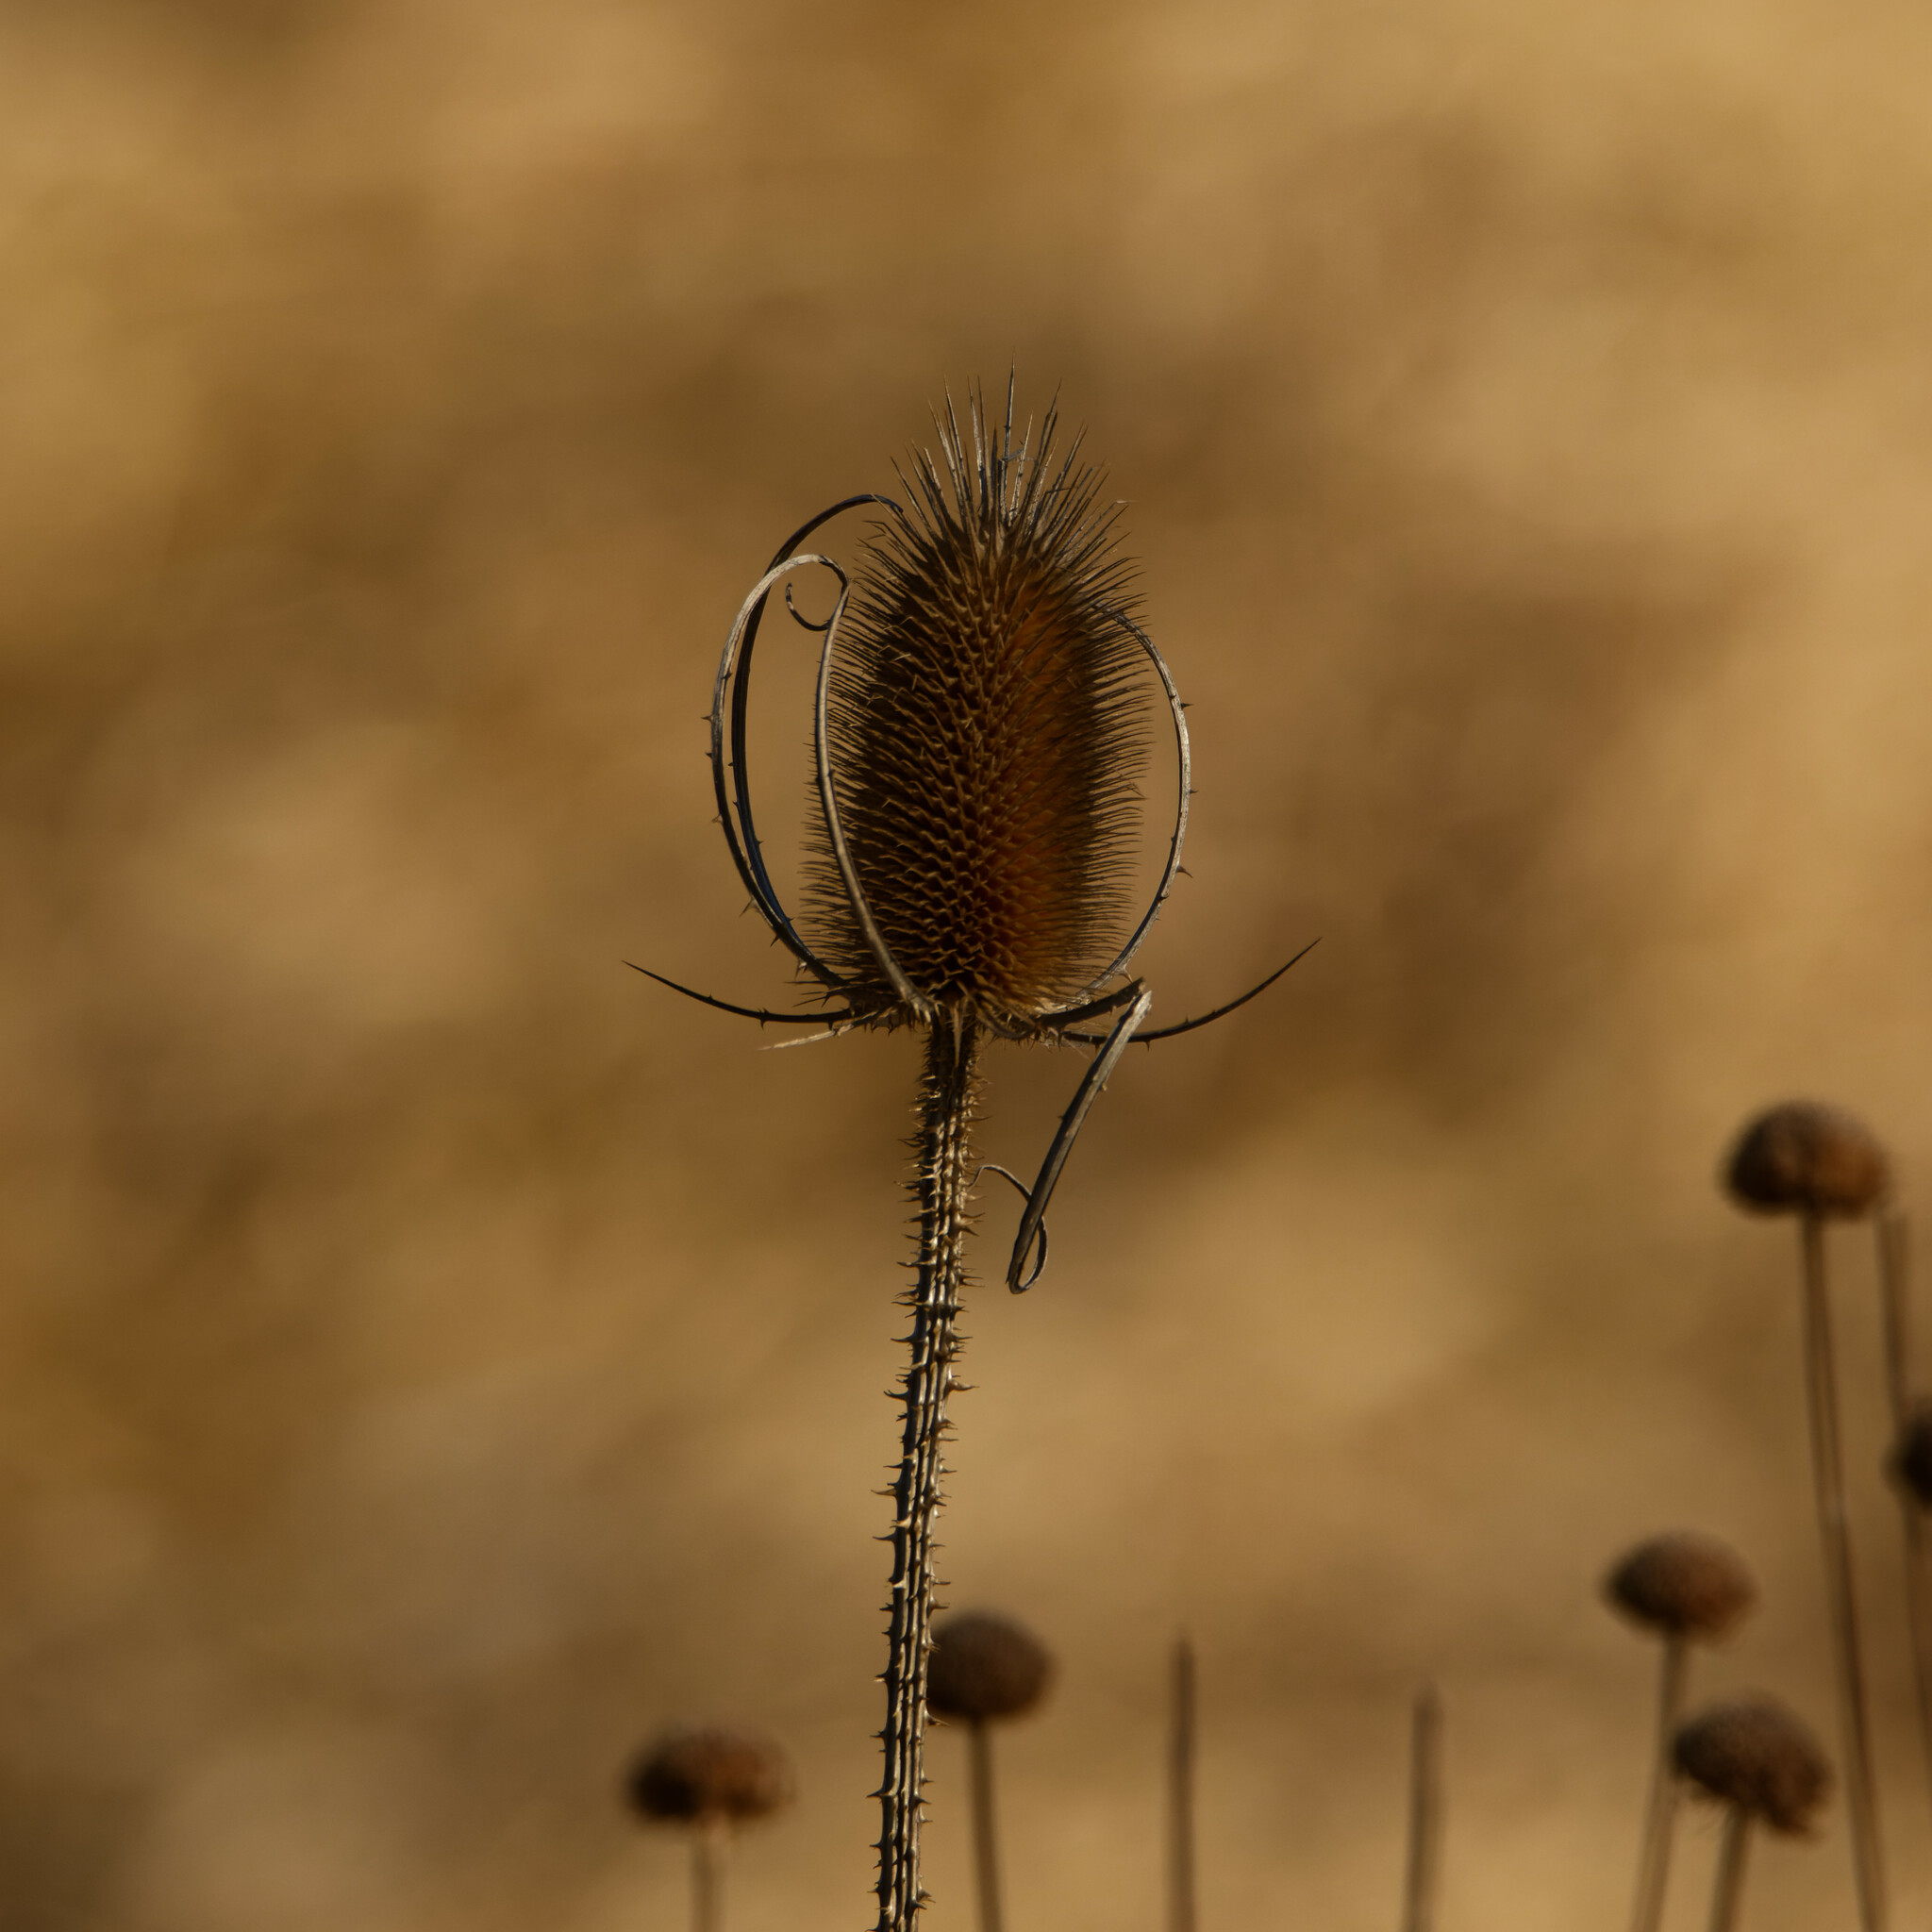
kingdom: Plantae
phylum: Tracheophyta
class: Magnoliopsida
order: Dipsacales
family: Caprifoliaceae
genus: Dipsacus
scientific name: Dipsacus fullonum
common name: Teasel
